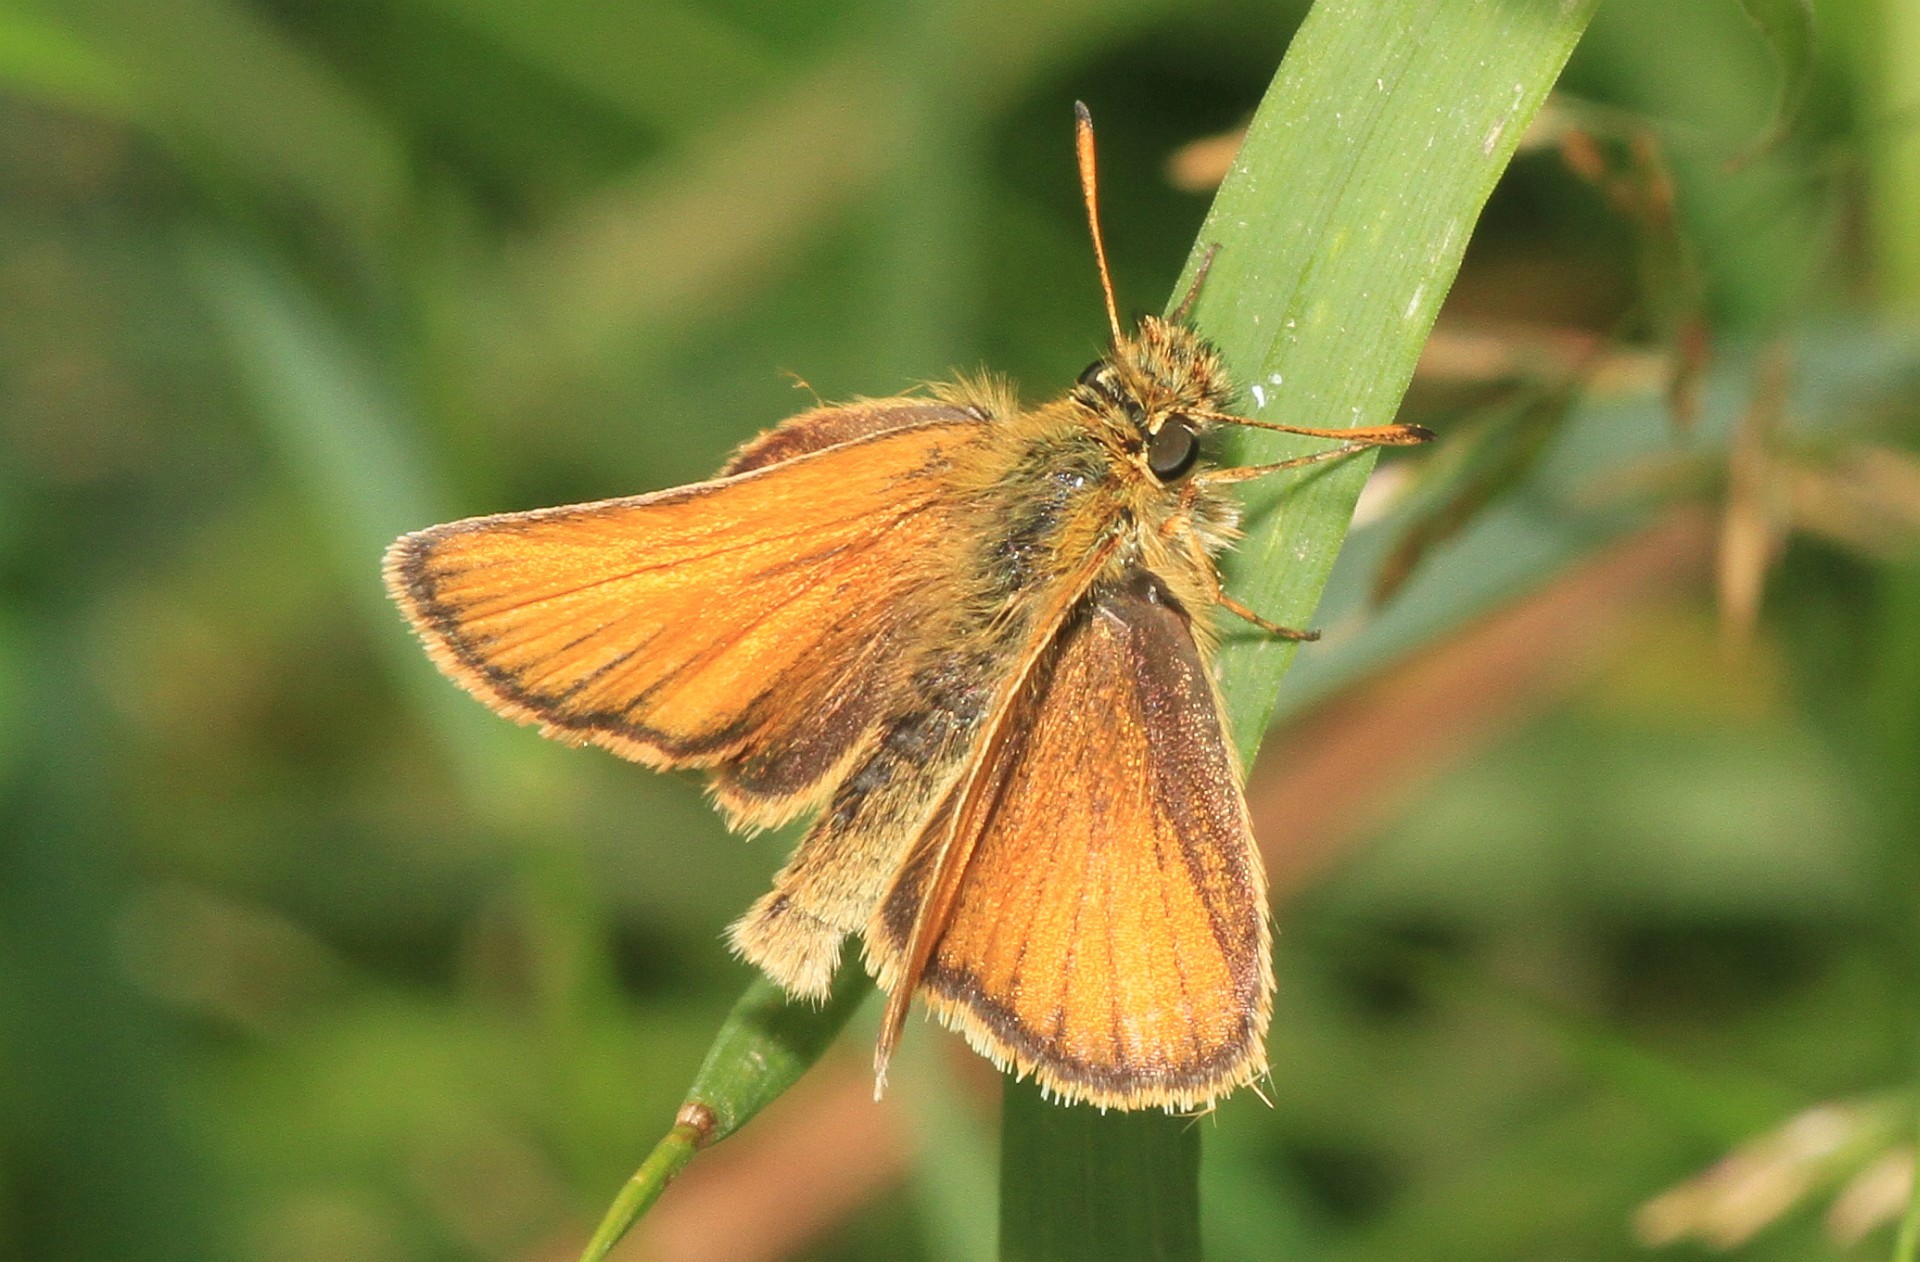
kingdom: Animalia
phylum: Arthropoda
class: Insecta
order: Lepidoptera
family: Hesperiidae
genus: Thymelicus
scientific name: Thymelicus lineola
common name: Essex skipper
